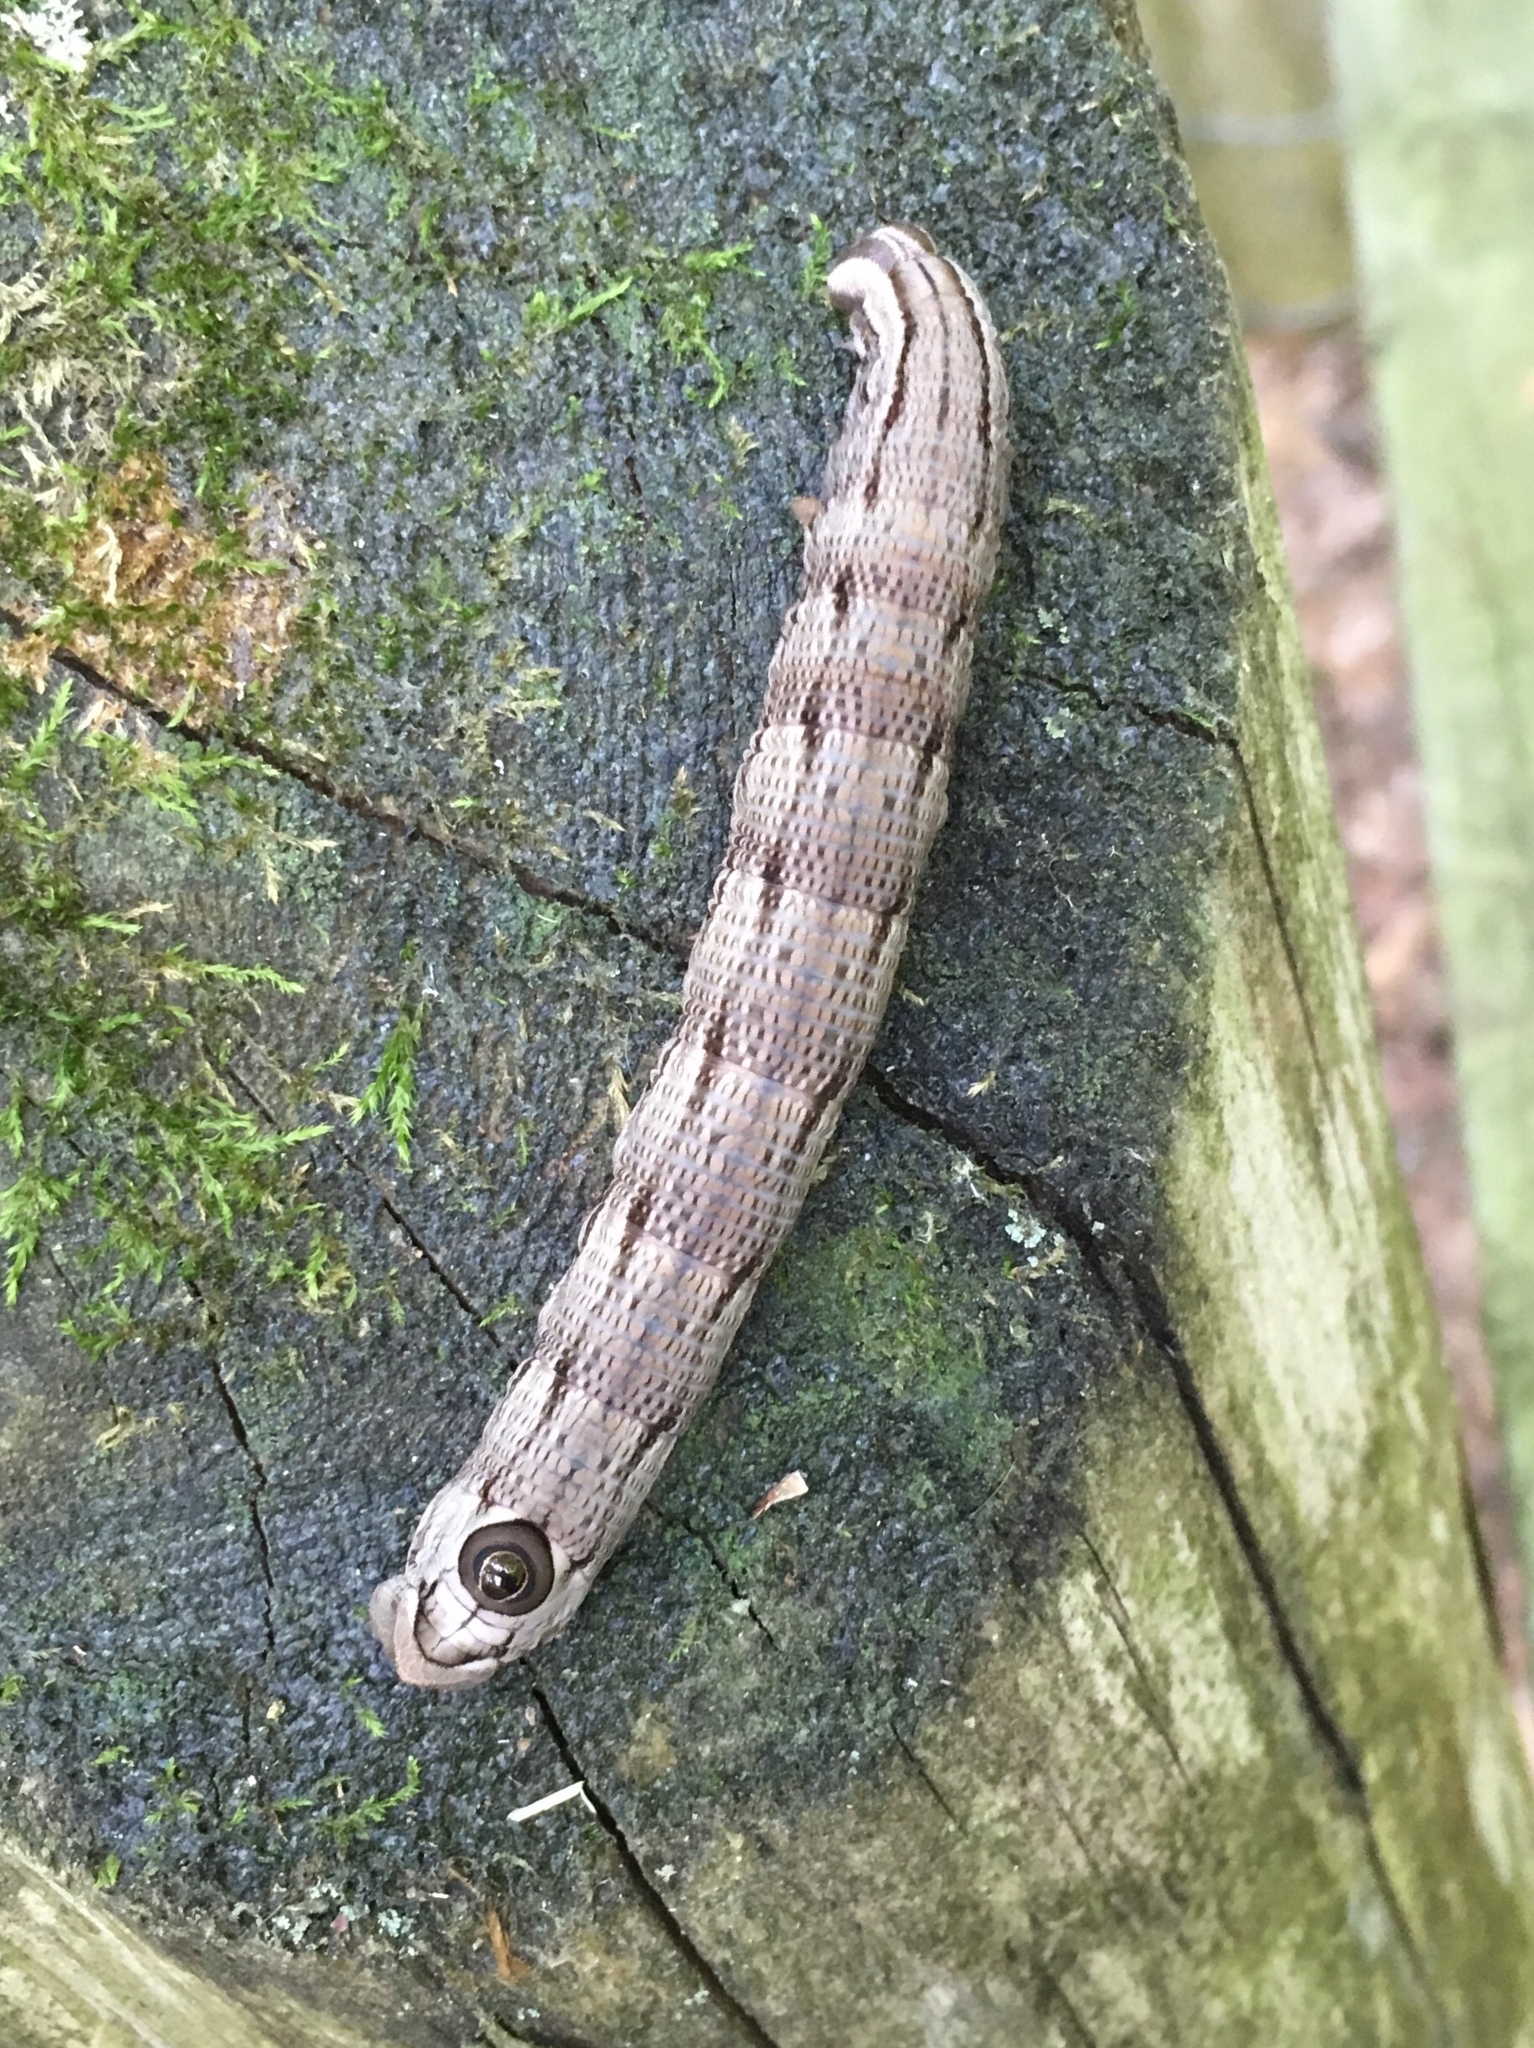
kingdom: Animalia
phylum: Arthropoda
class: Insecta
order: Lepidoptera
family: Sphingidae
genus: Sphecodina
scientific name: Sphecodina abbottii
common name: Abbott's sphinx
